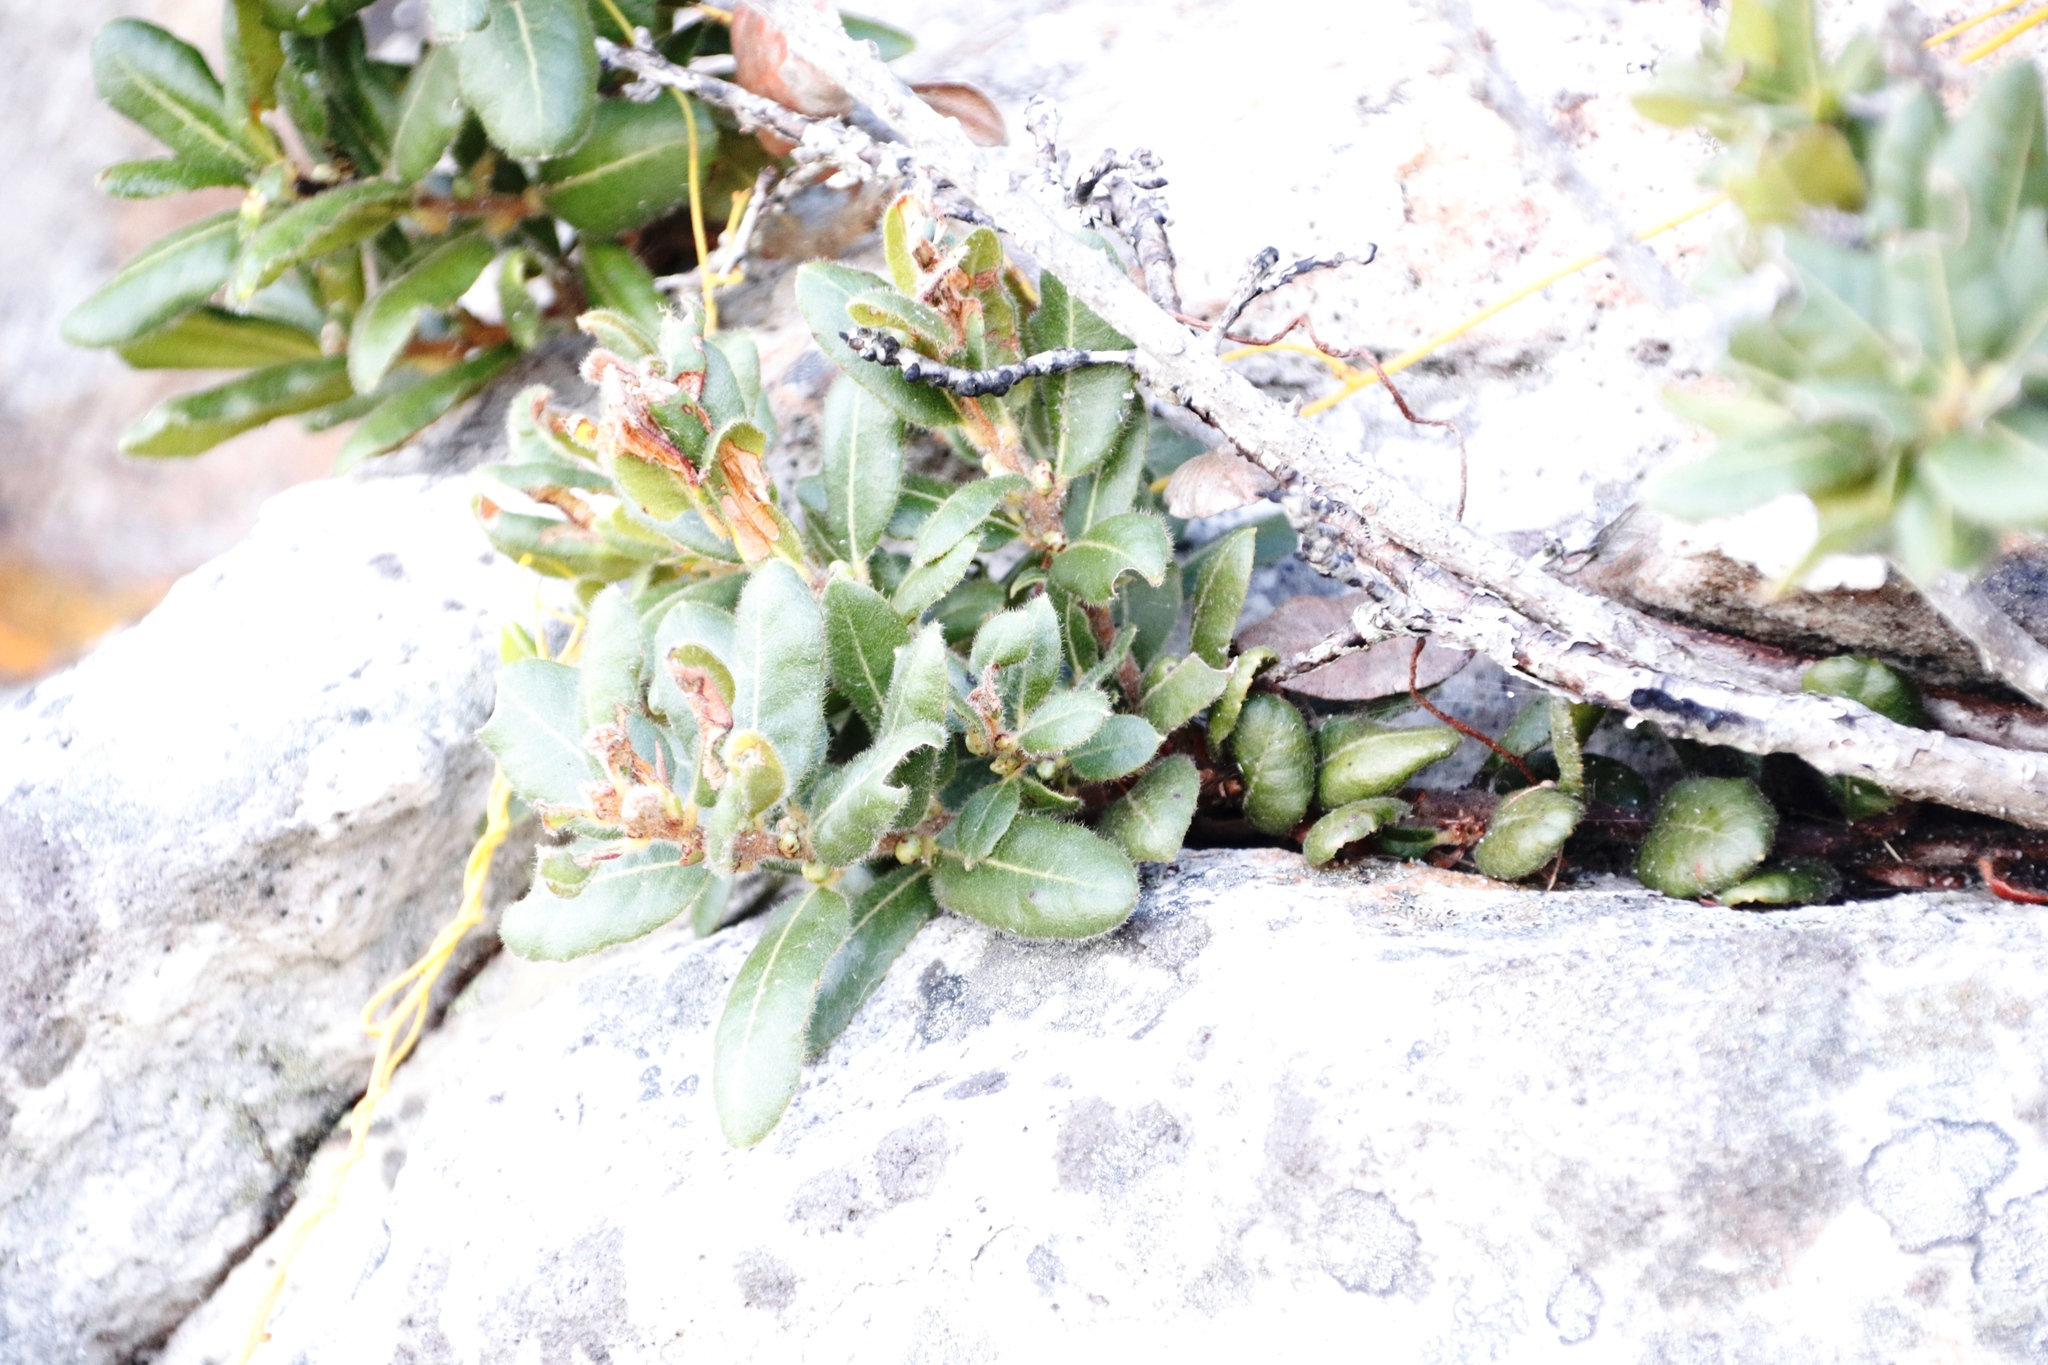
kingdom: Plantae
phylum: Tracheophyta
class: Magnoliopsida
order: Fagales
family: Myricaceae
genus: Morella
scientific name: Morella kraussiana
